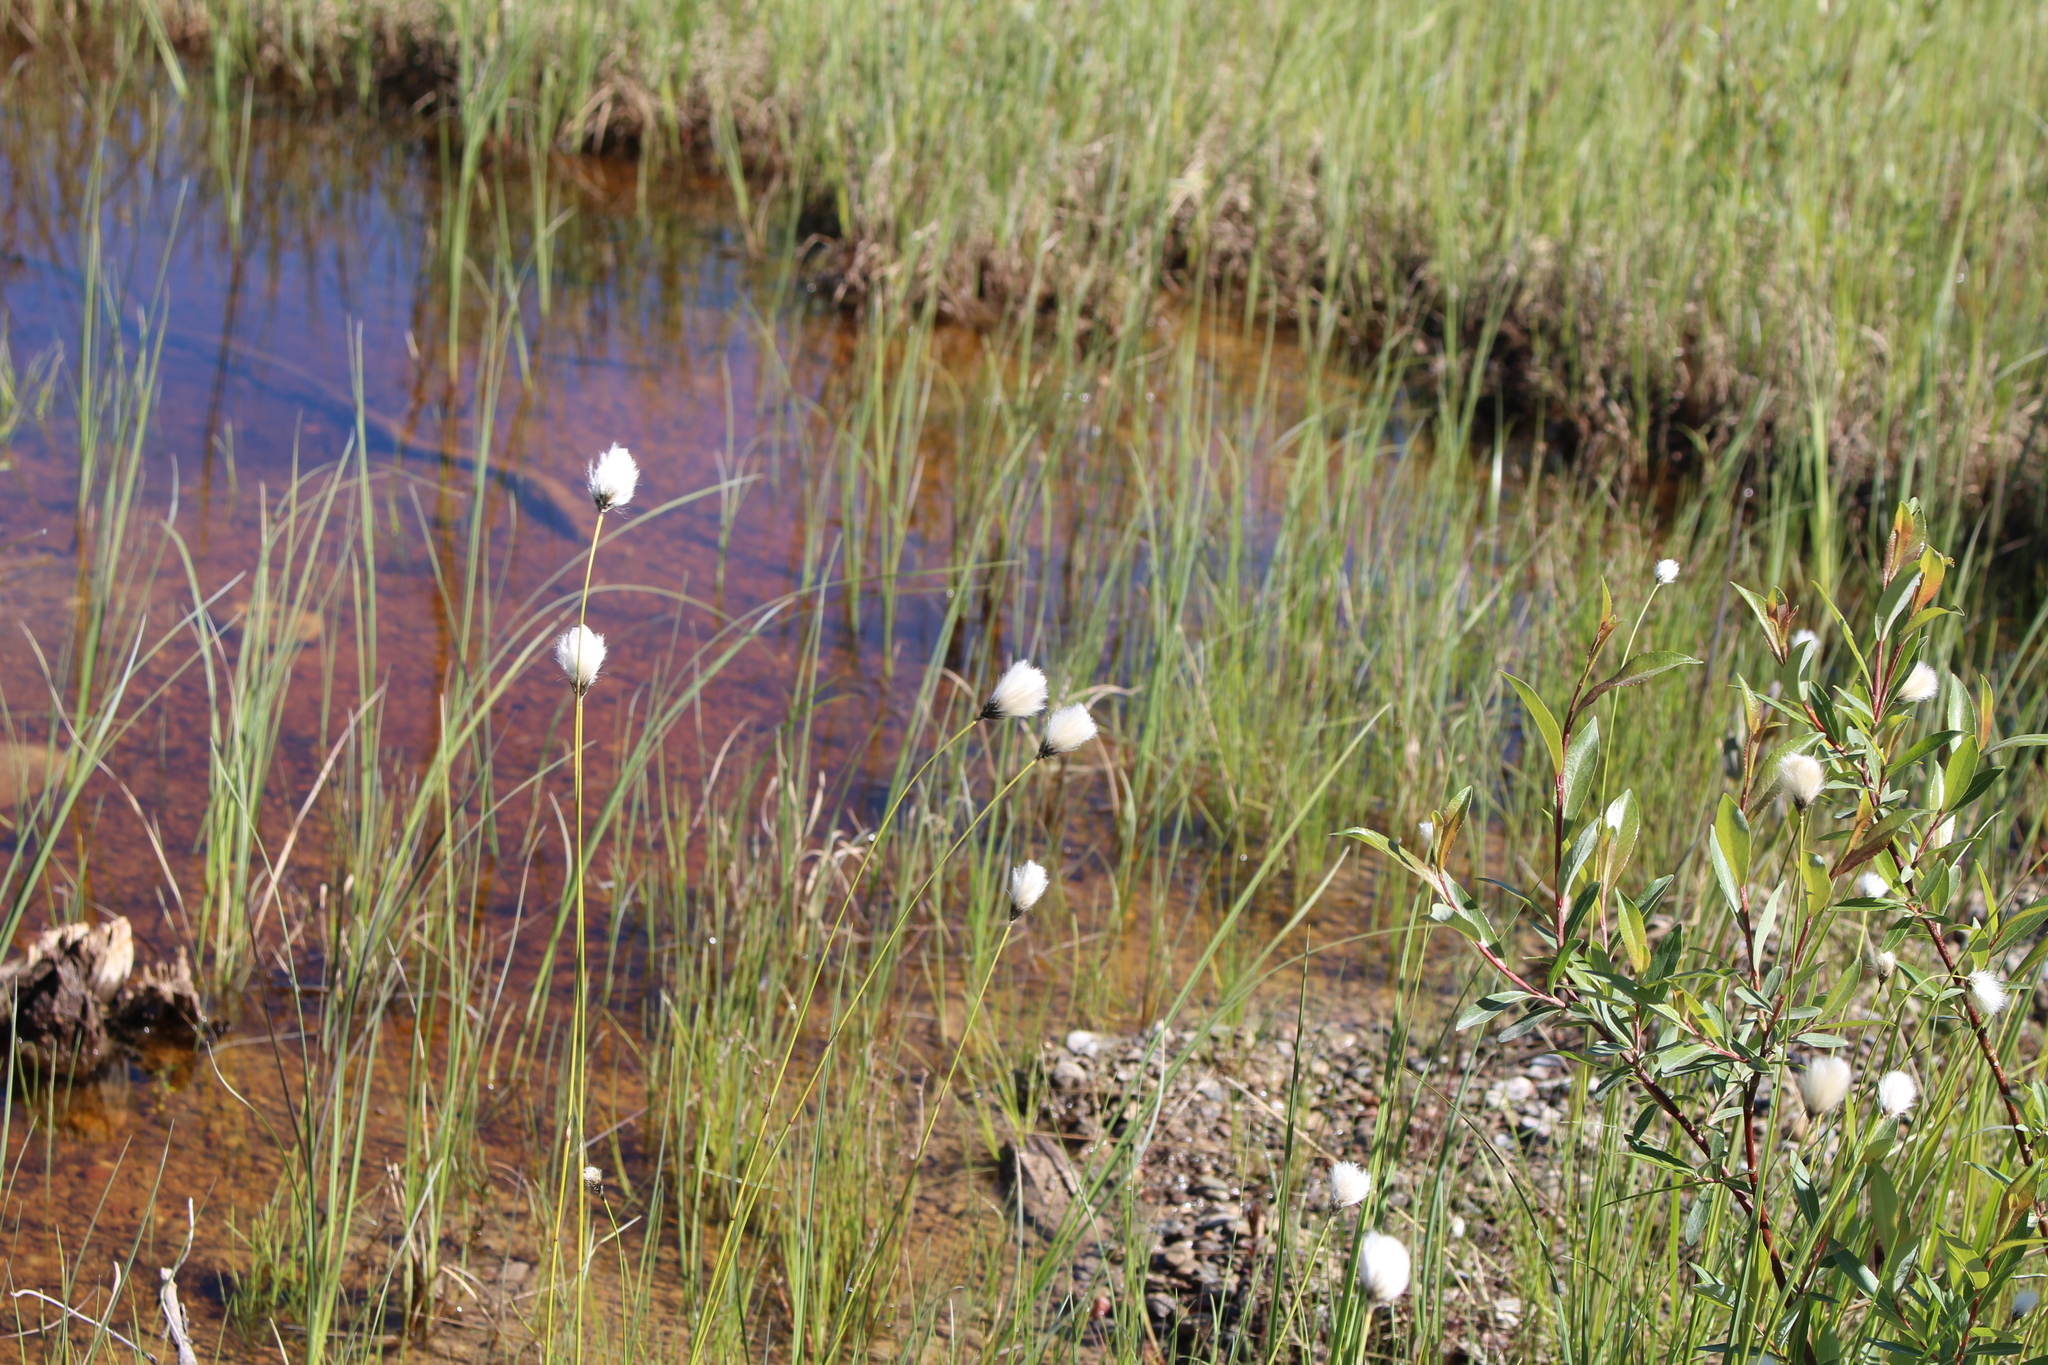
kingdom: Plantae
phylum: Tracheophyta
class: Liliopsida
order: Poales
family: Cyperaceae
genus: Eriophorum
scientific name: Eriophorum brachyantherum
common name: Closed-sheathed cottongrass
